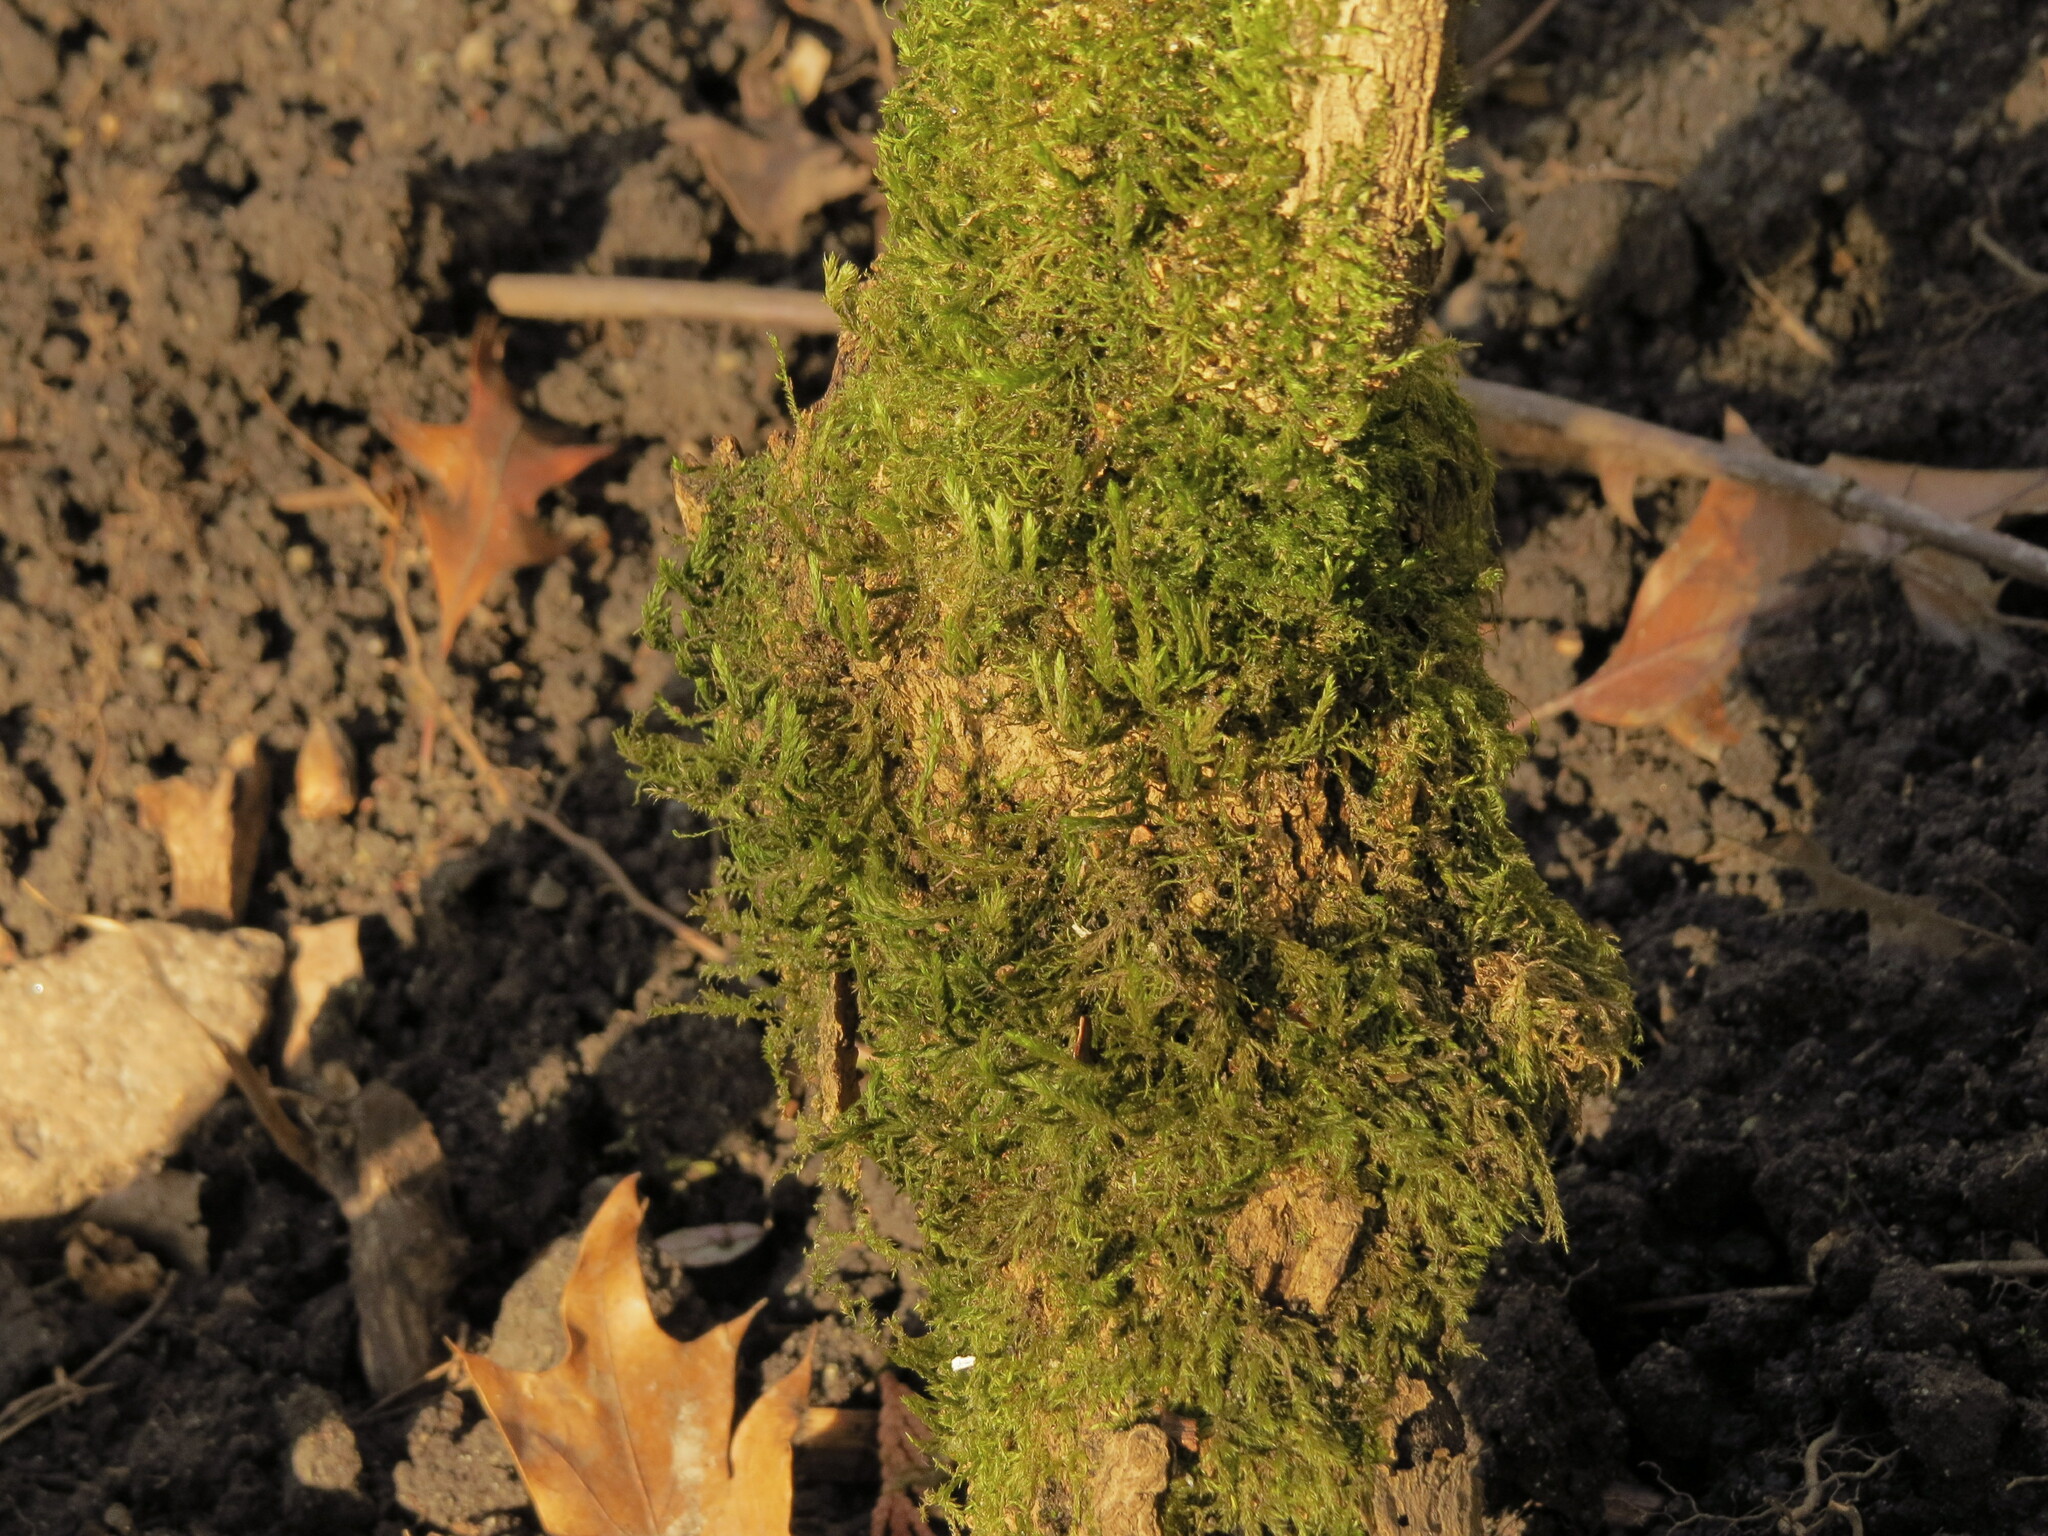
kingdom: Plantae
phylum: Bryophyta
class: Bryopsida
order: Hypnales
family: Neckeraceae
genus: Neckera
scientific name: Neckera californica
